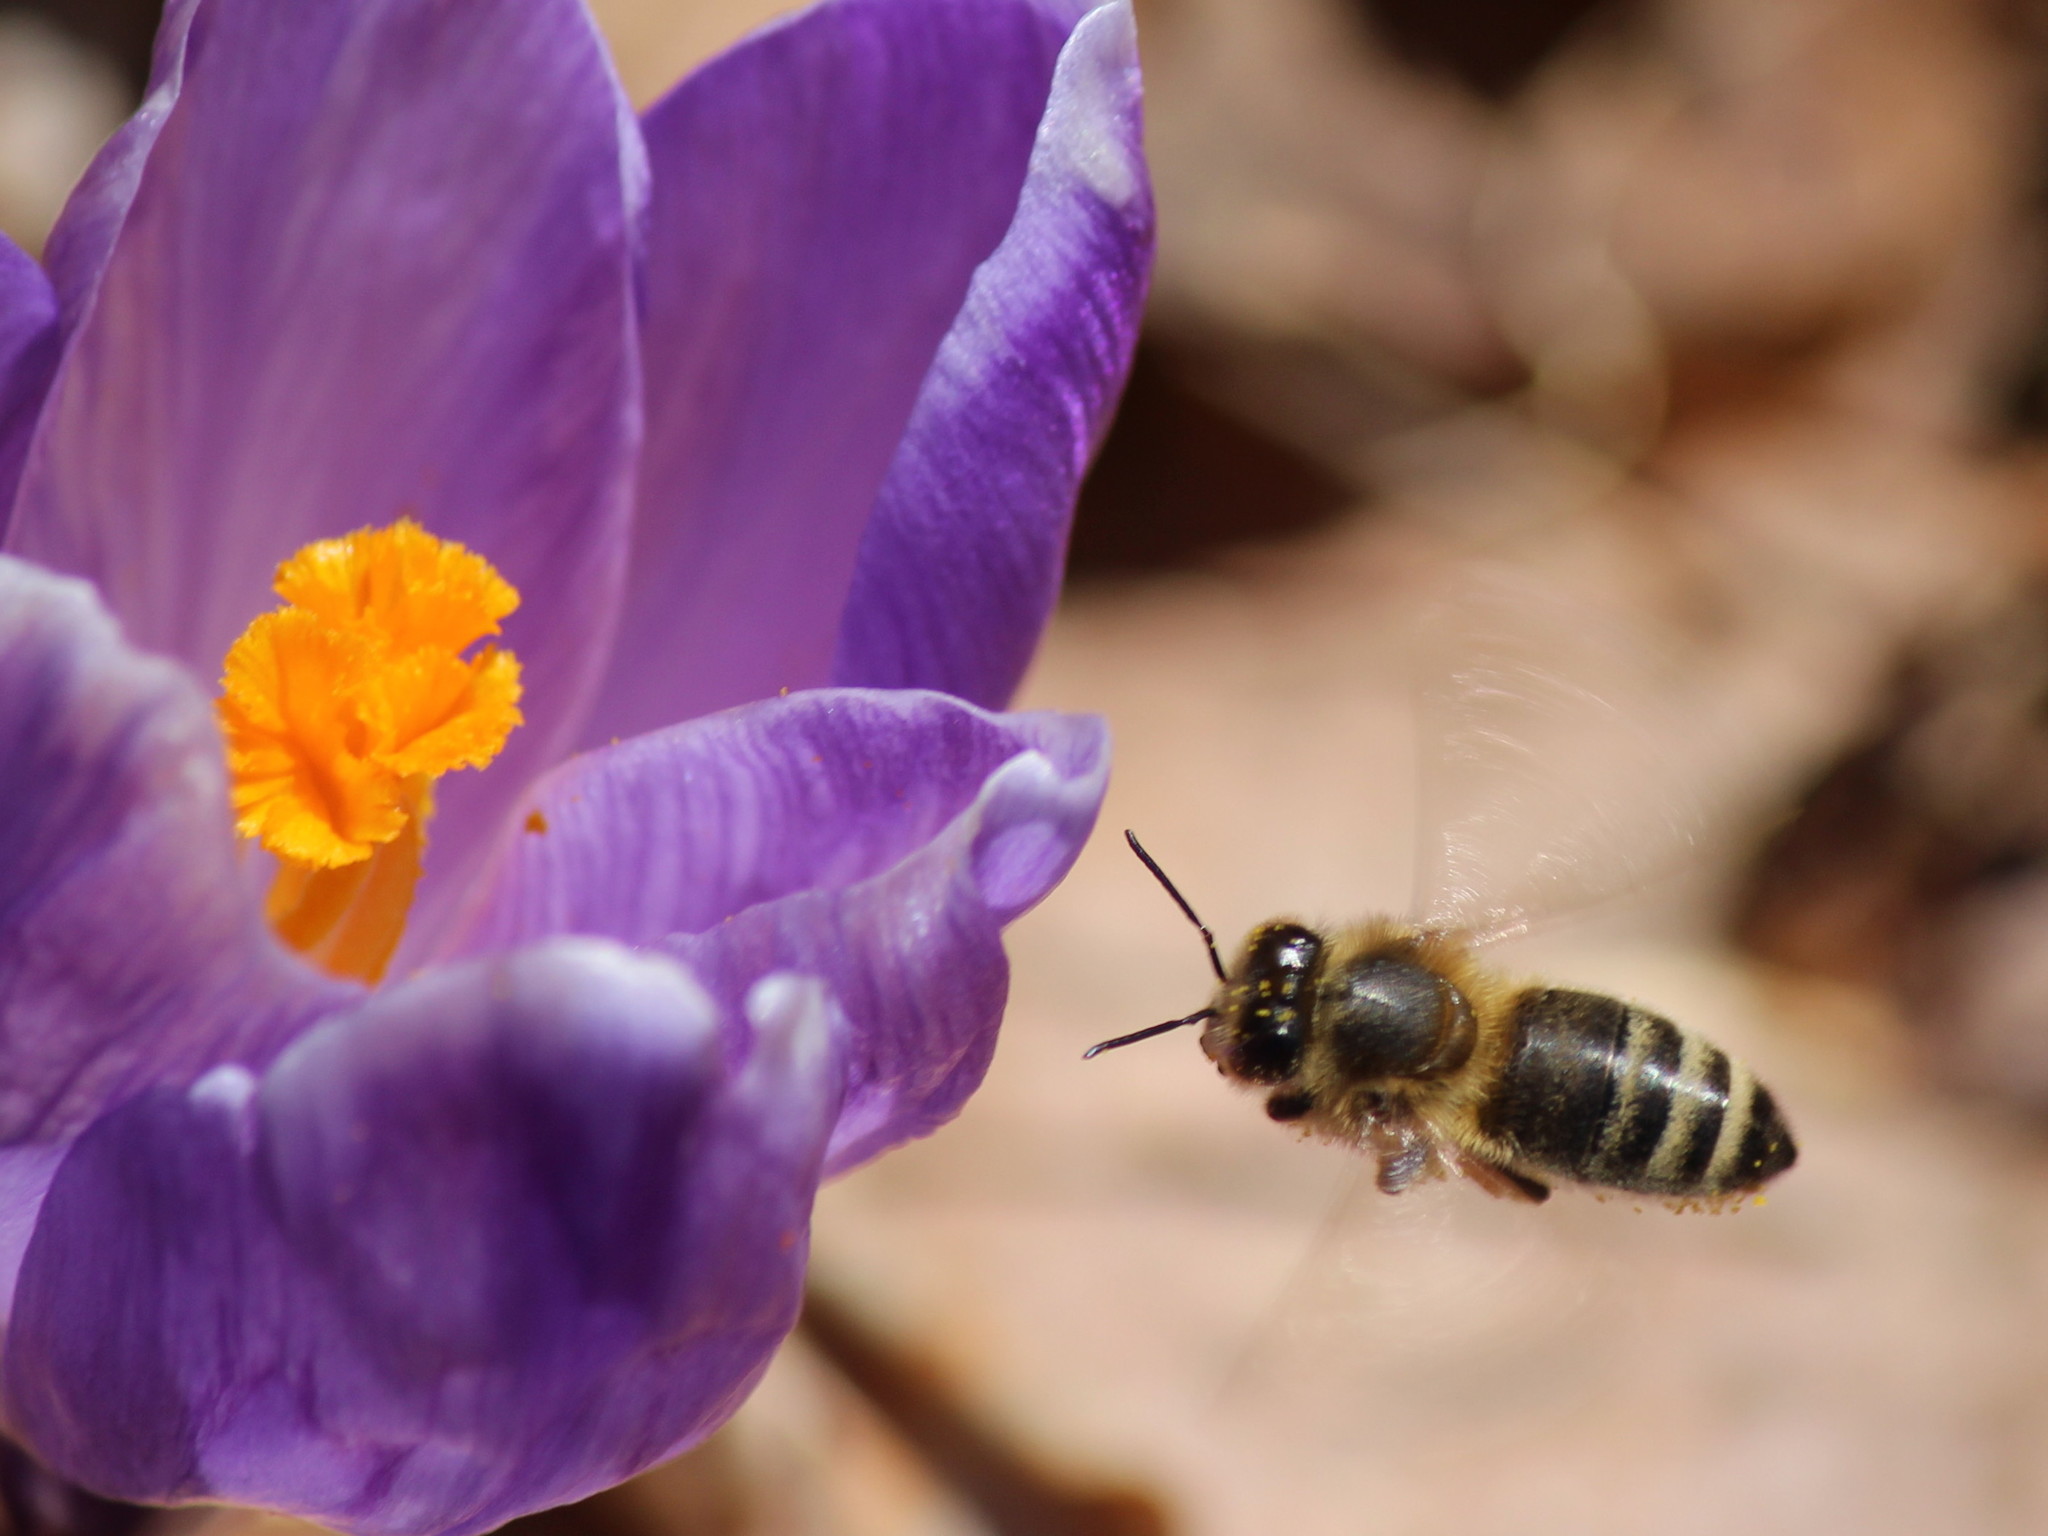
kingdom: Animalia
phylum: Arthropoda
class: Insecta
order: Hymenoptera
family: Apidae
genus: Apis
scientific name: Apis mellifera
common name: Honey bee
